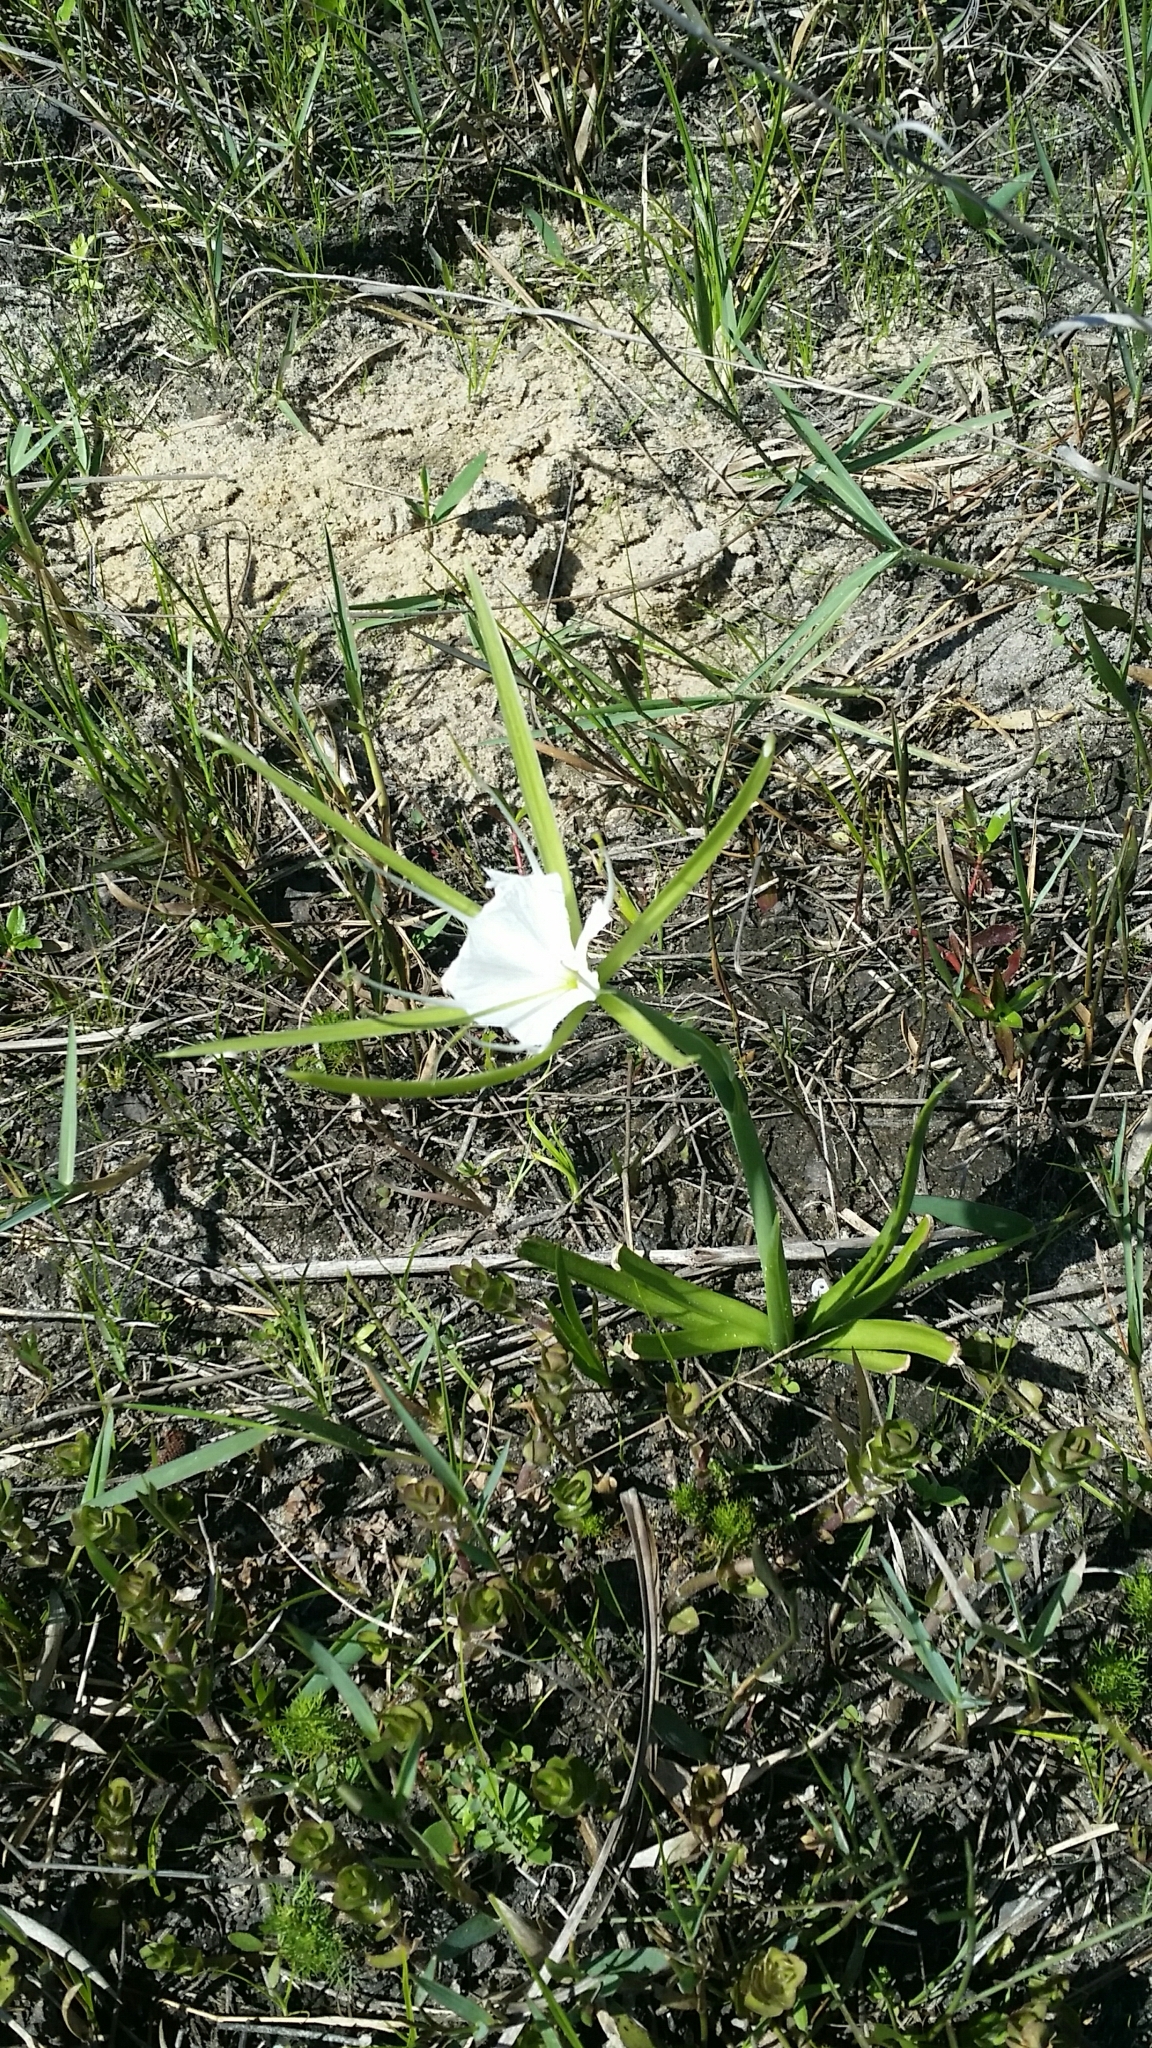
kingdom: Plantae
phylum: Tracheophyta
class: Liliopsida
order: Asparagales
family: Amaryllidaceae
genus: Hymenocallis
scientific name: Hymenocallis palmeri
